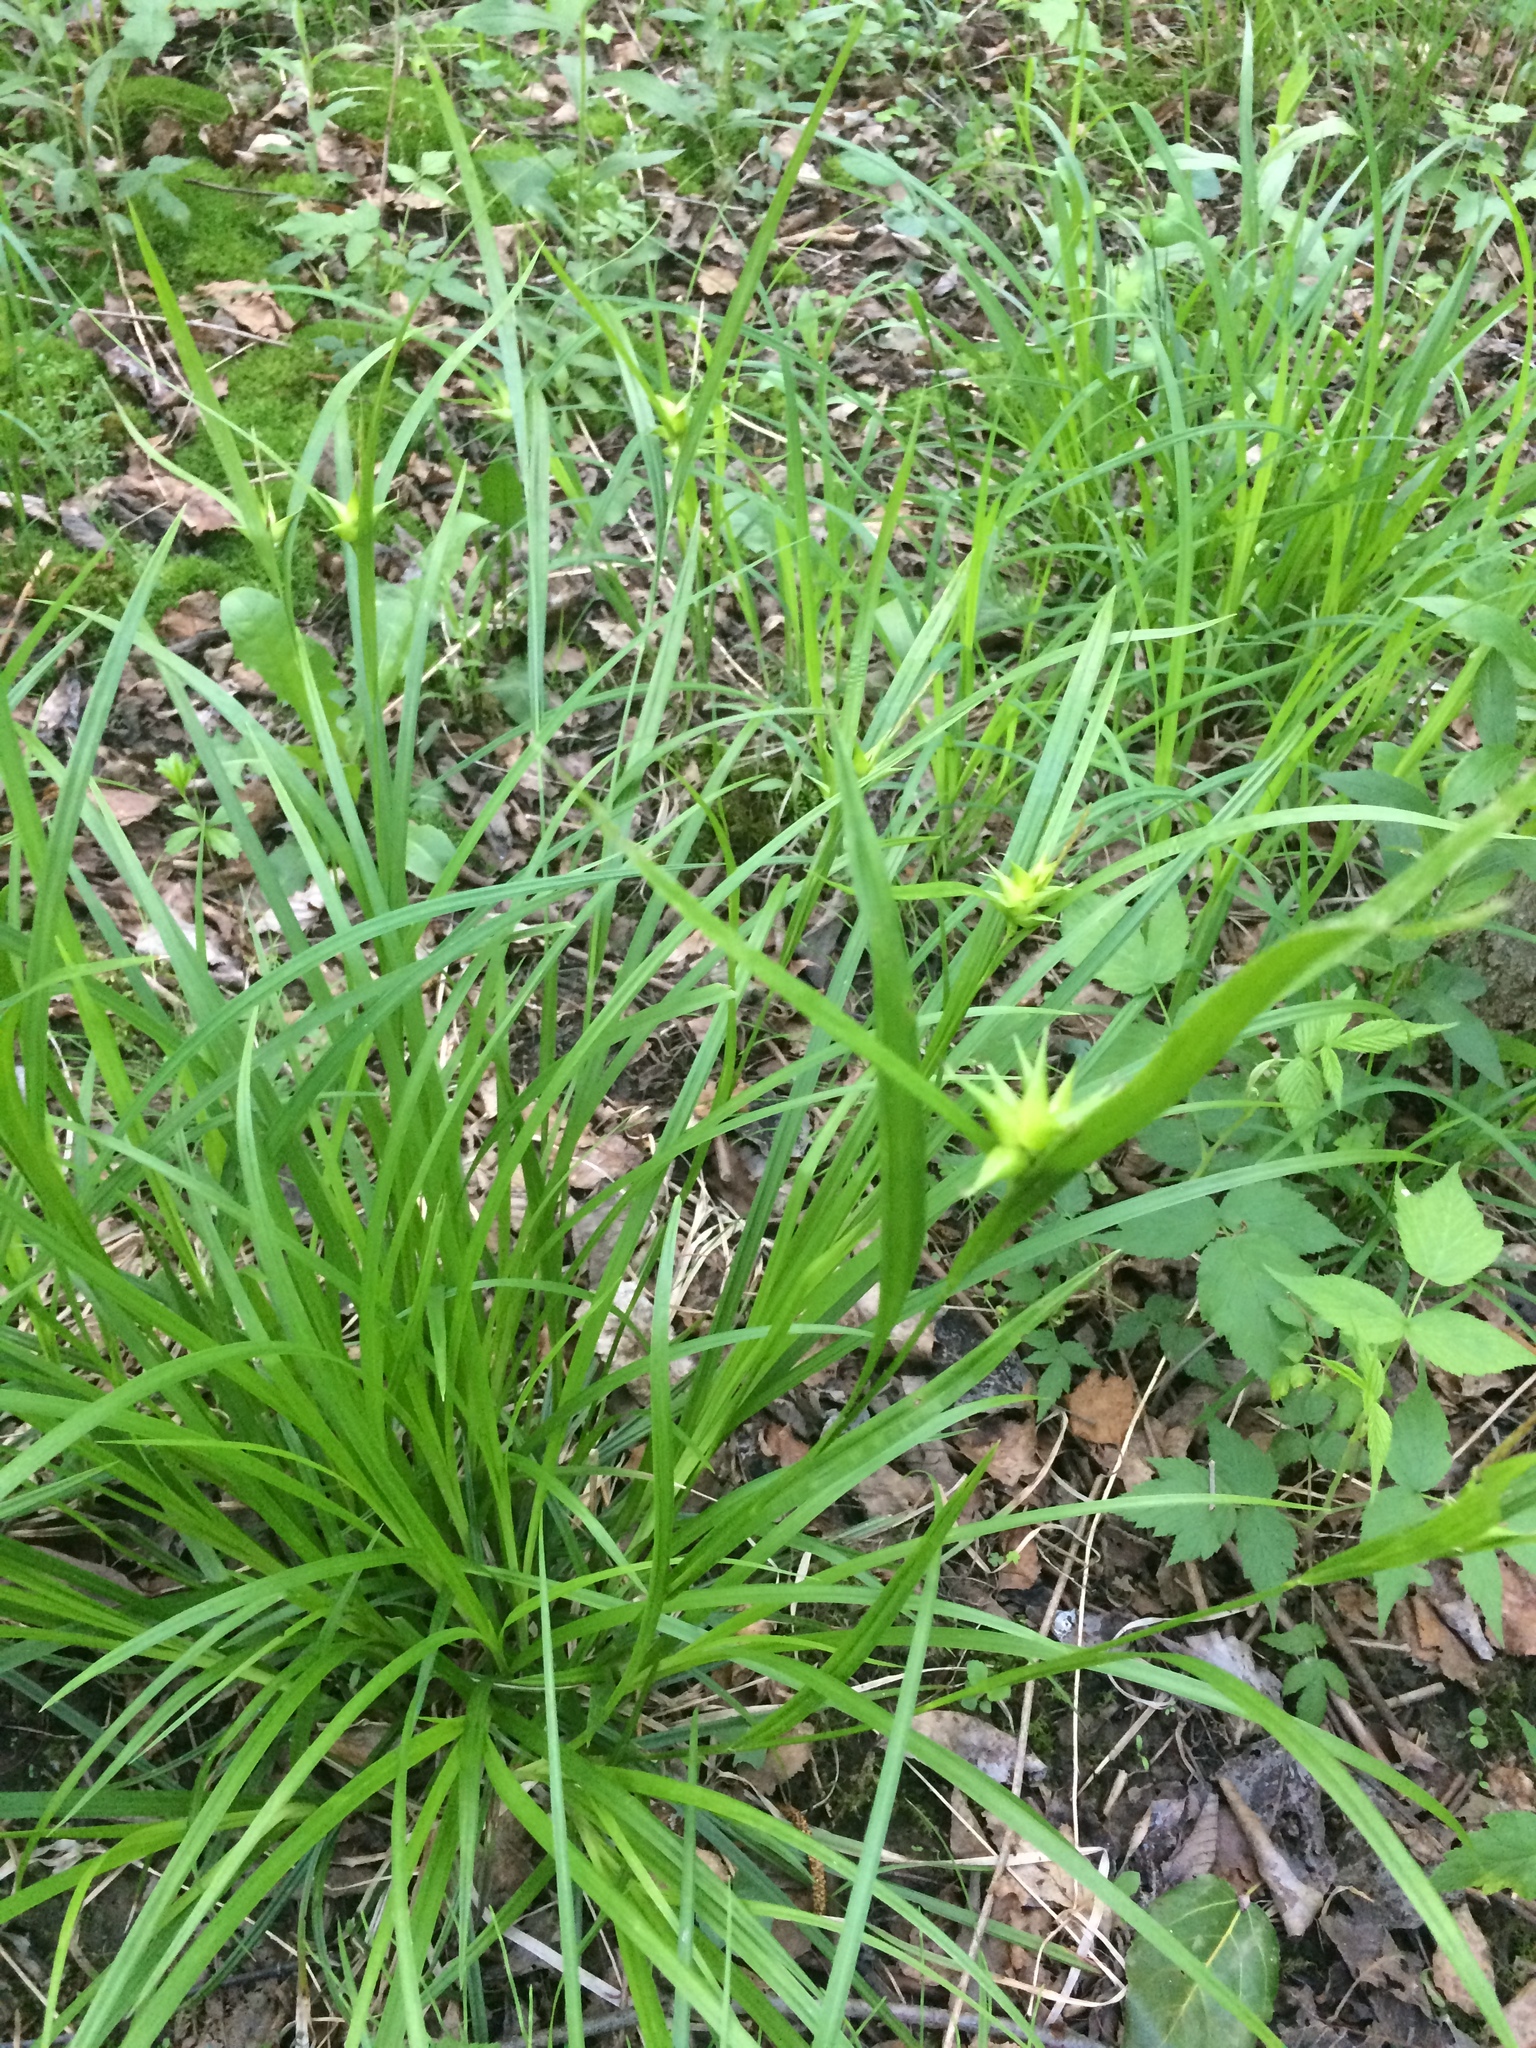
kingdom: Plantae
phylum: Tracheophyta
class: Liliopsida
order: Poales
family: Cyperaceae
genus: Carex
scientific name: Carex intumescens
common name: Greater bladder sedge
